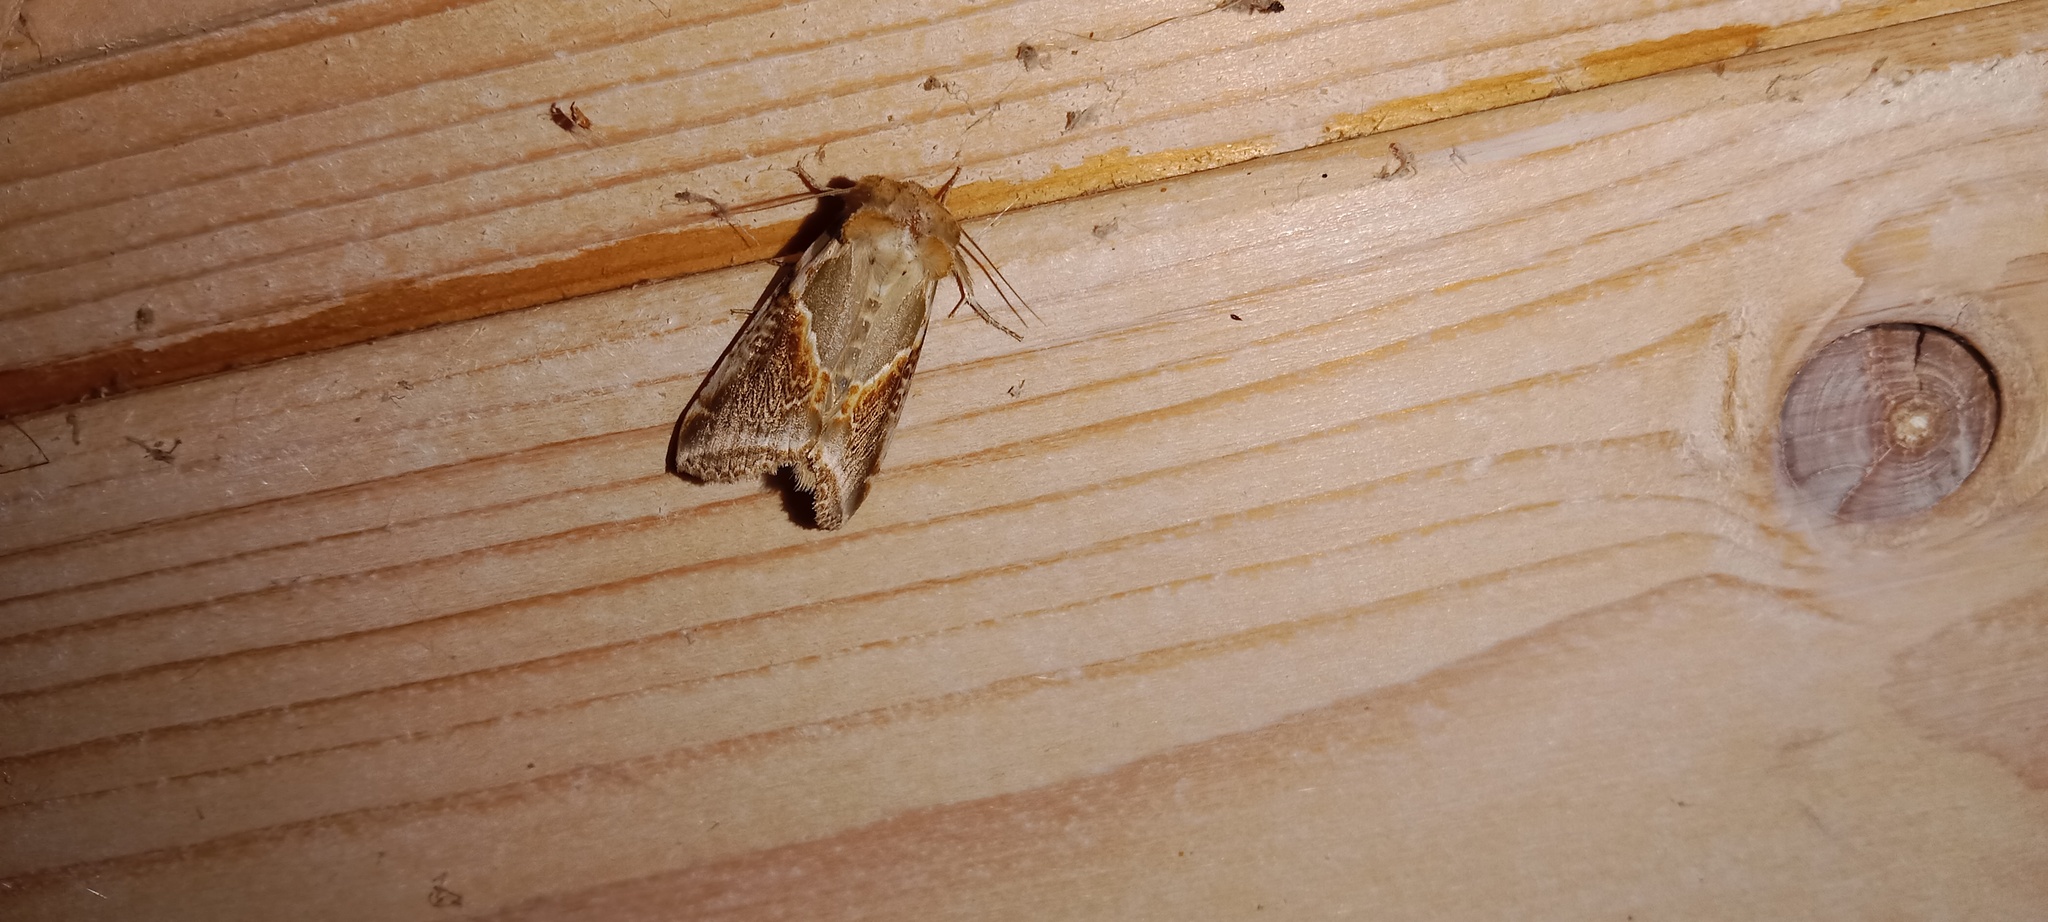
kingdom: Animalia
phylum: Arthropoda
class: Insecta
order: Lepidoptera
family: Drepanidae
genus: Habrosyne
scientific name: Habrosyne pyritoides
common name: Buff arches
